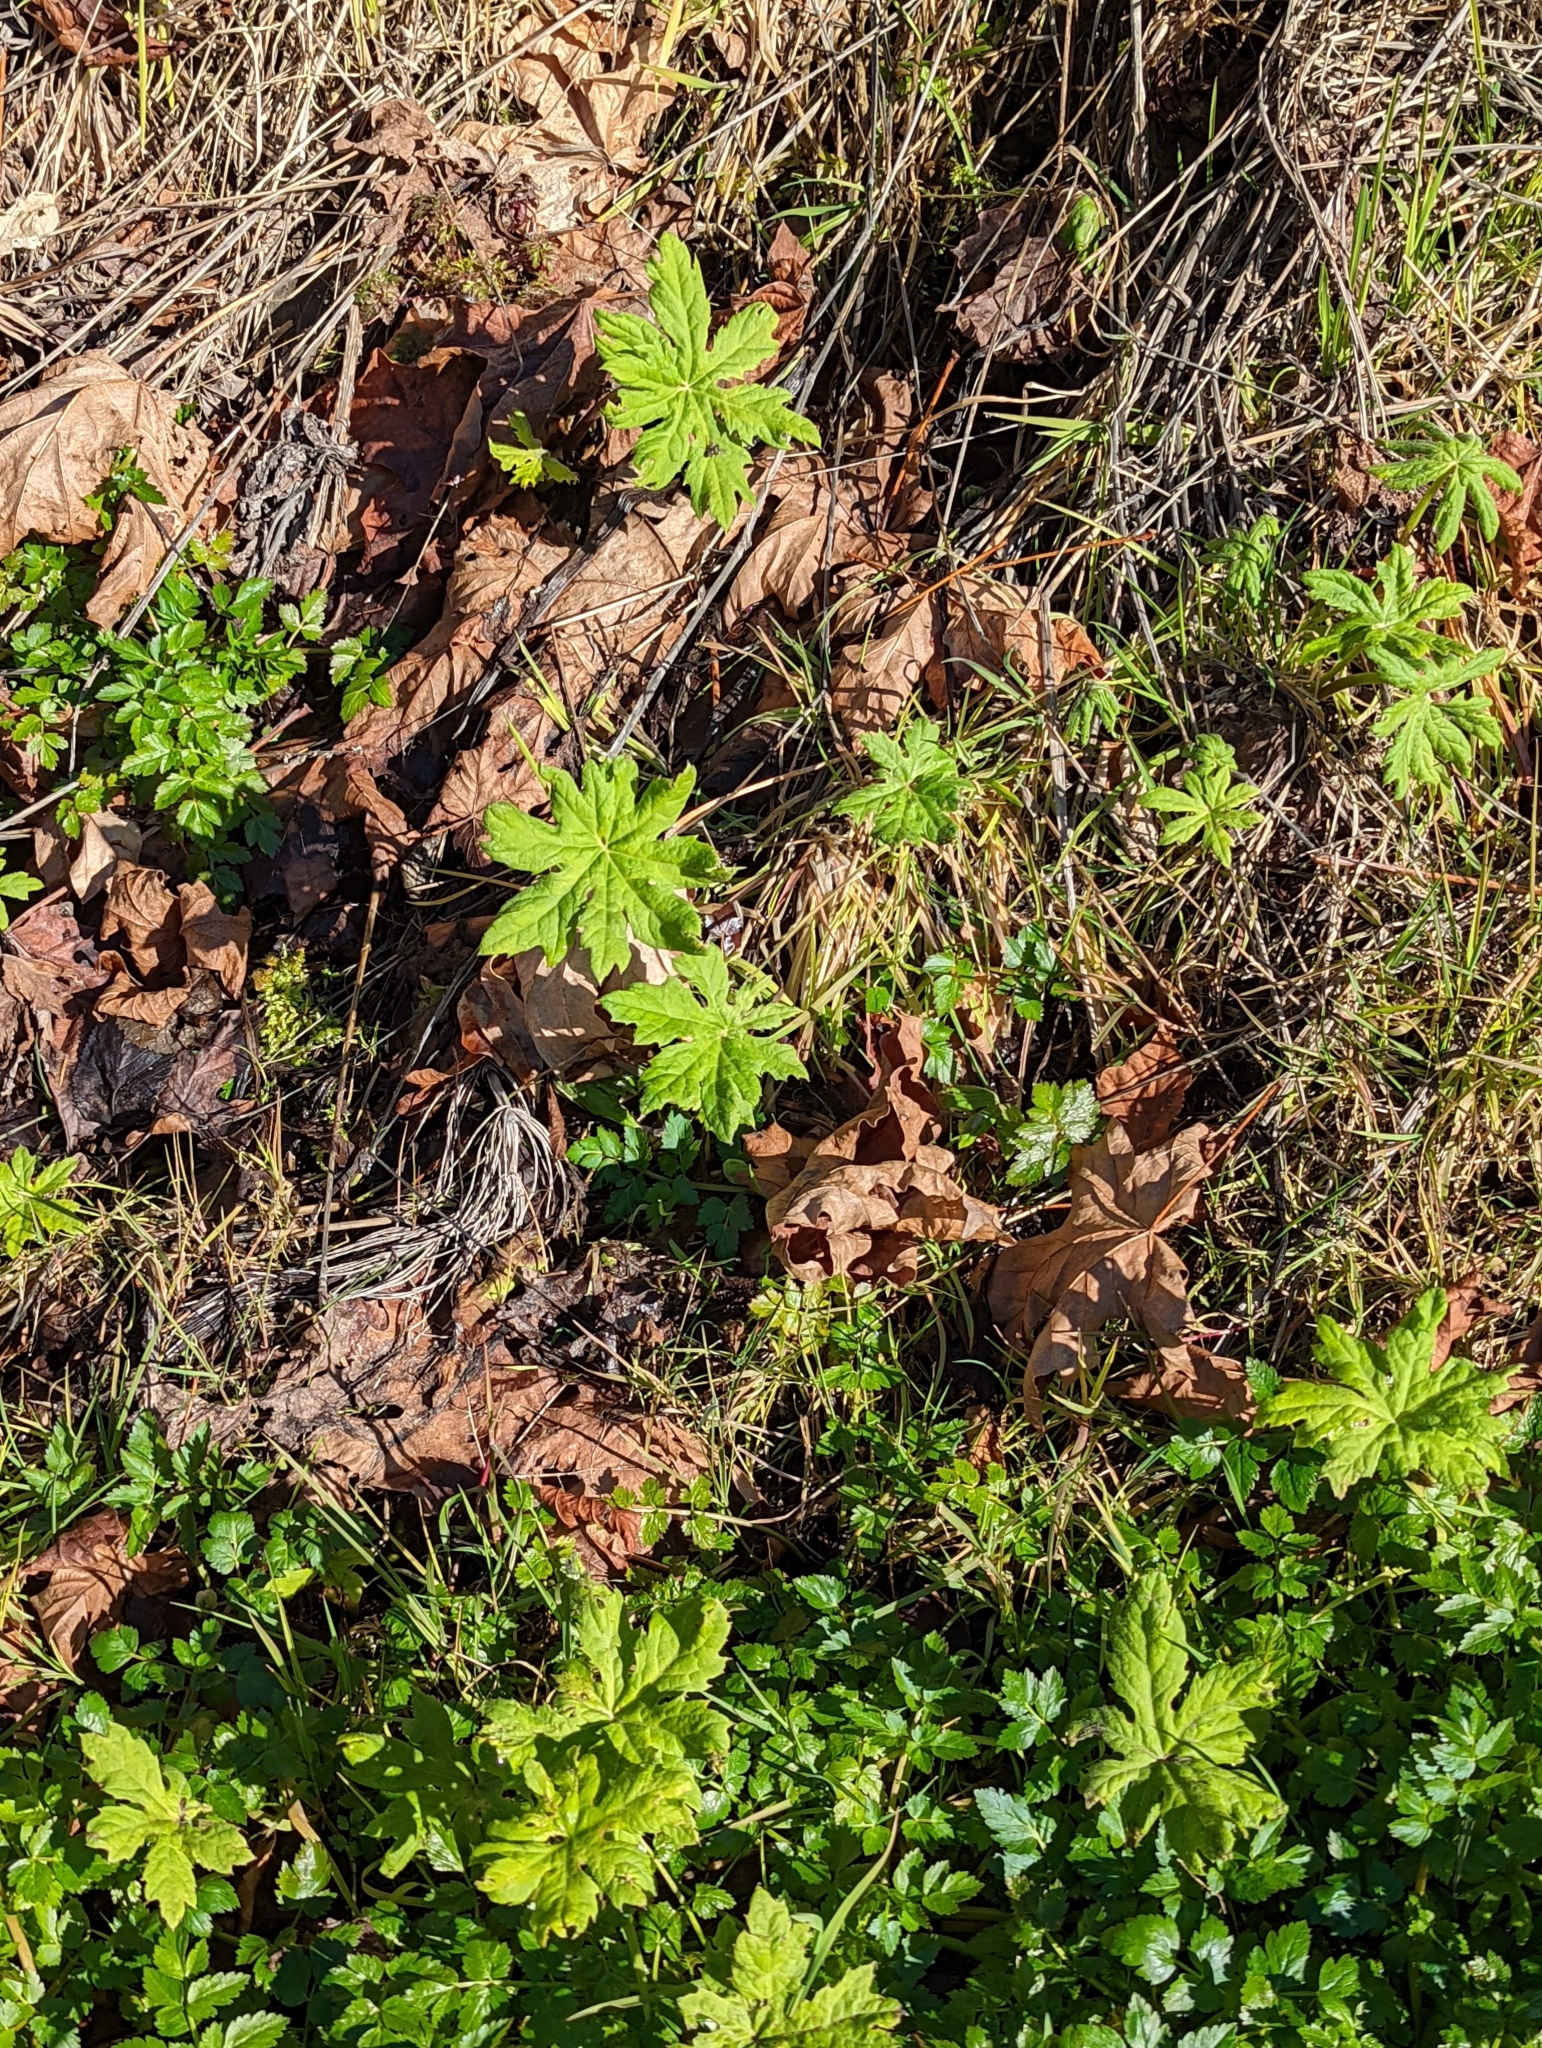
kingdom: Plantae
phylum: Tracheophyta
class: Magnoliopsida
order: Asterales
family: Asteraceae
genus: Petasites
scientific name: Petasites frigidus
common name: Arctic butterbur
